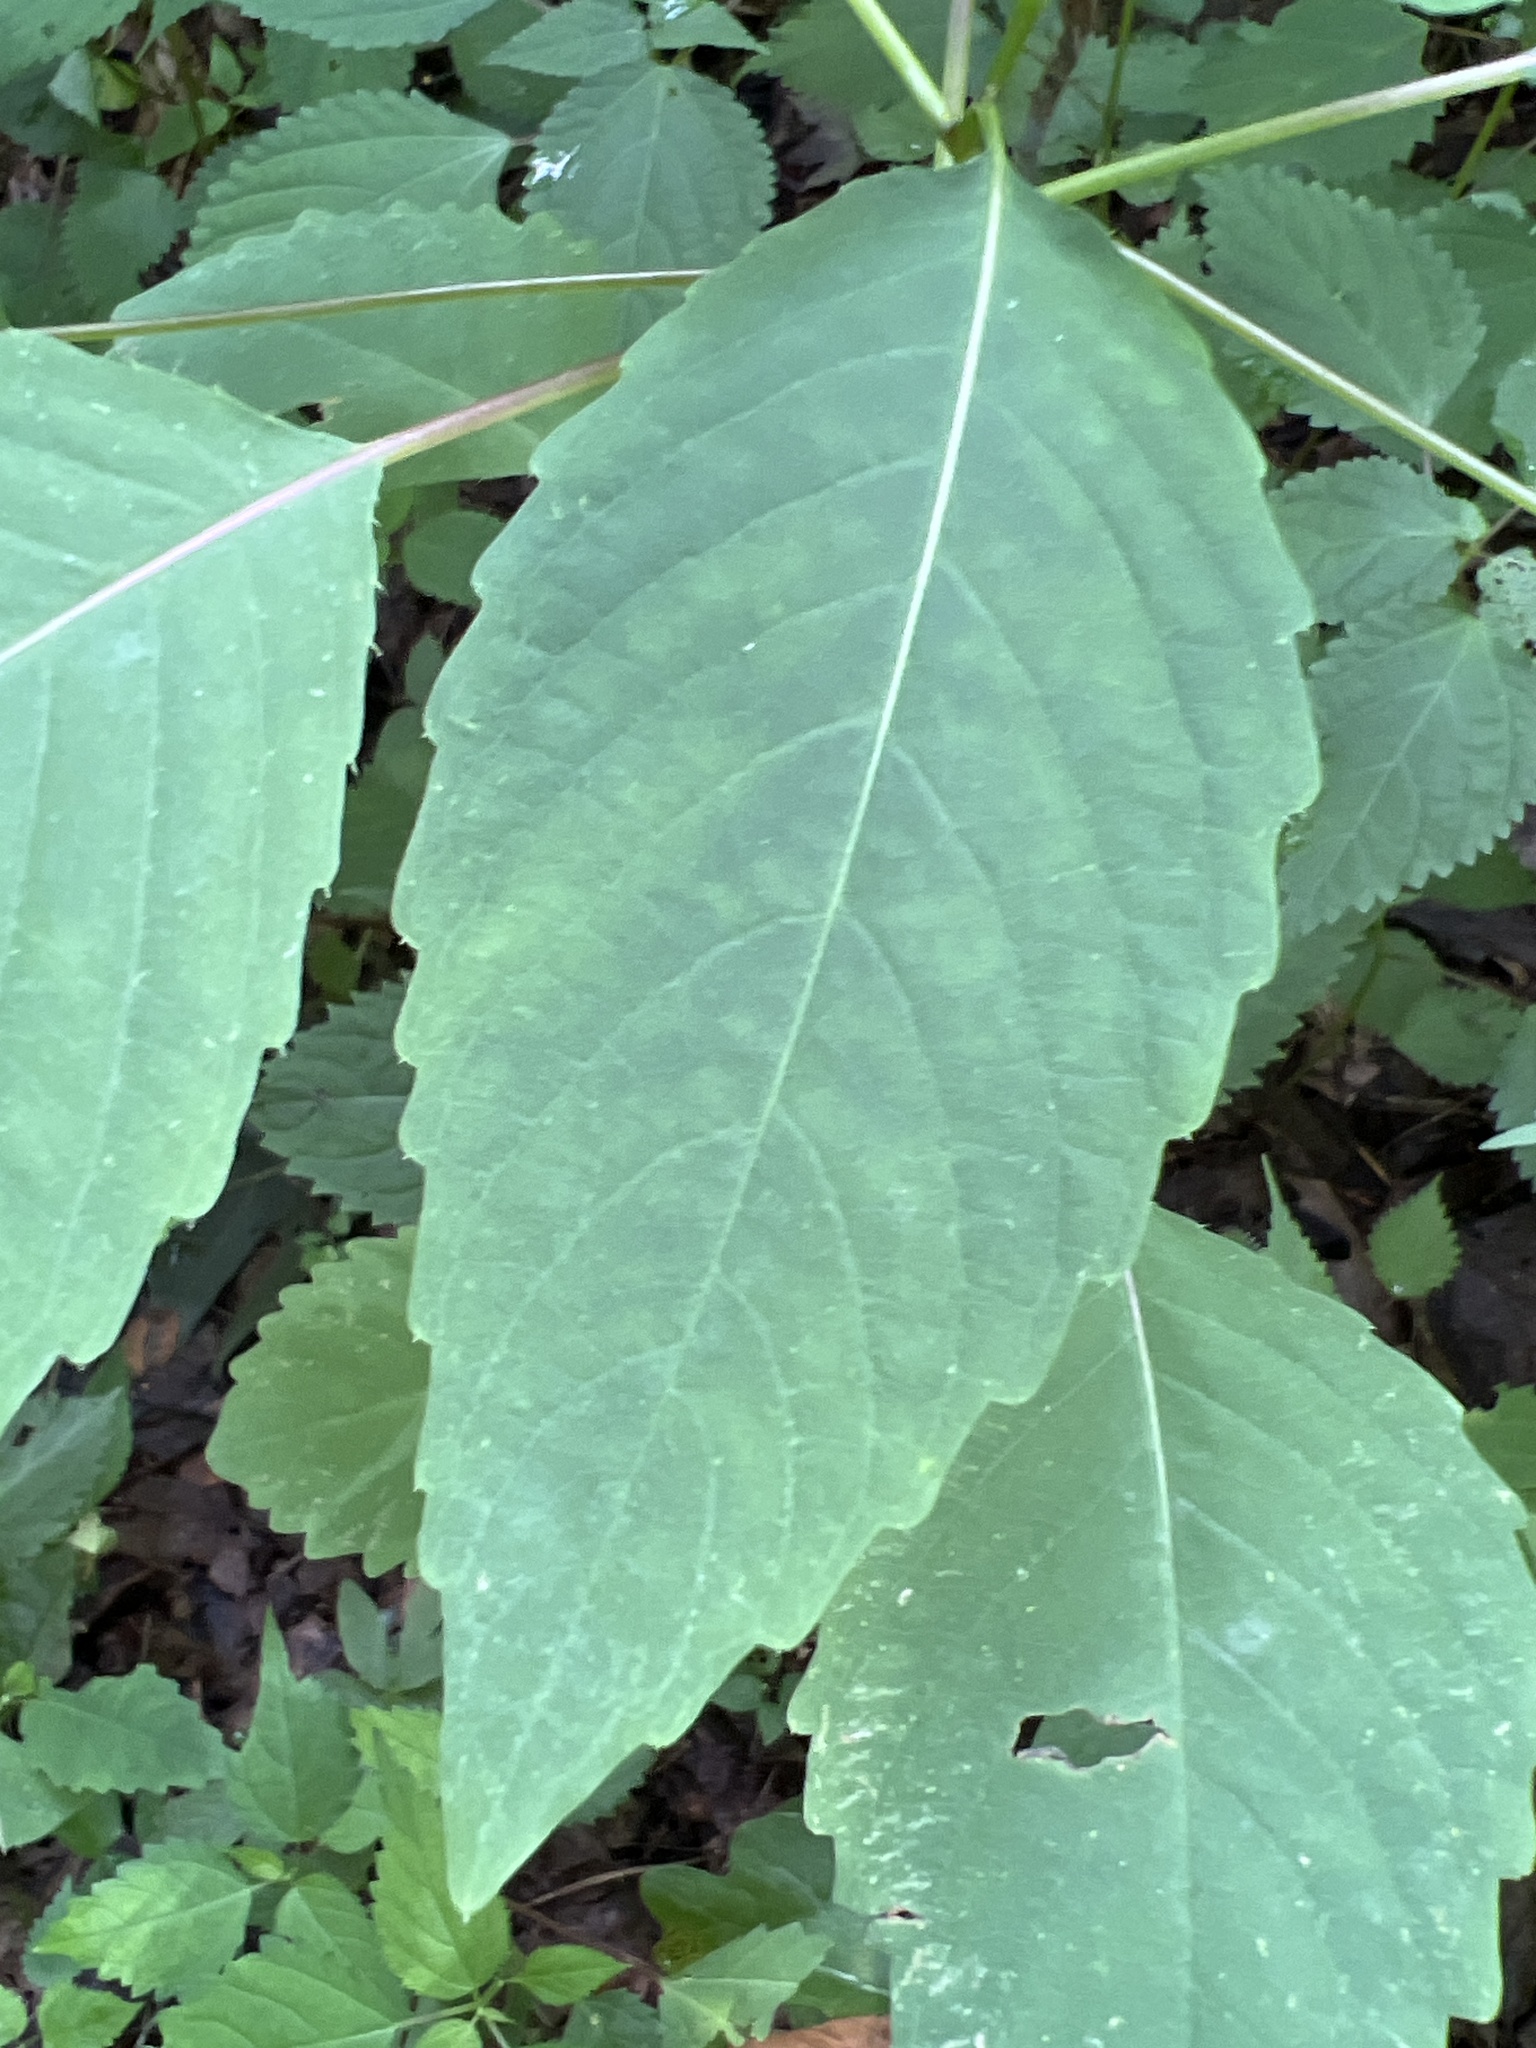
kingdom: Plantae
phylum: Tracheophyta
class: Magnoliopsida
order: Ericales
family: Balsaminaceae
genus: Impatiens
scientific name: Impatiens pallida
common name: Pale snapweed
